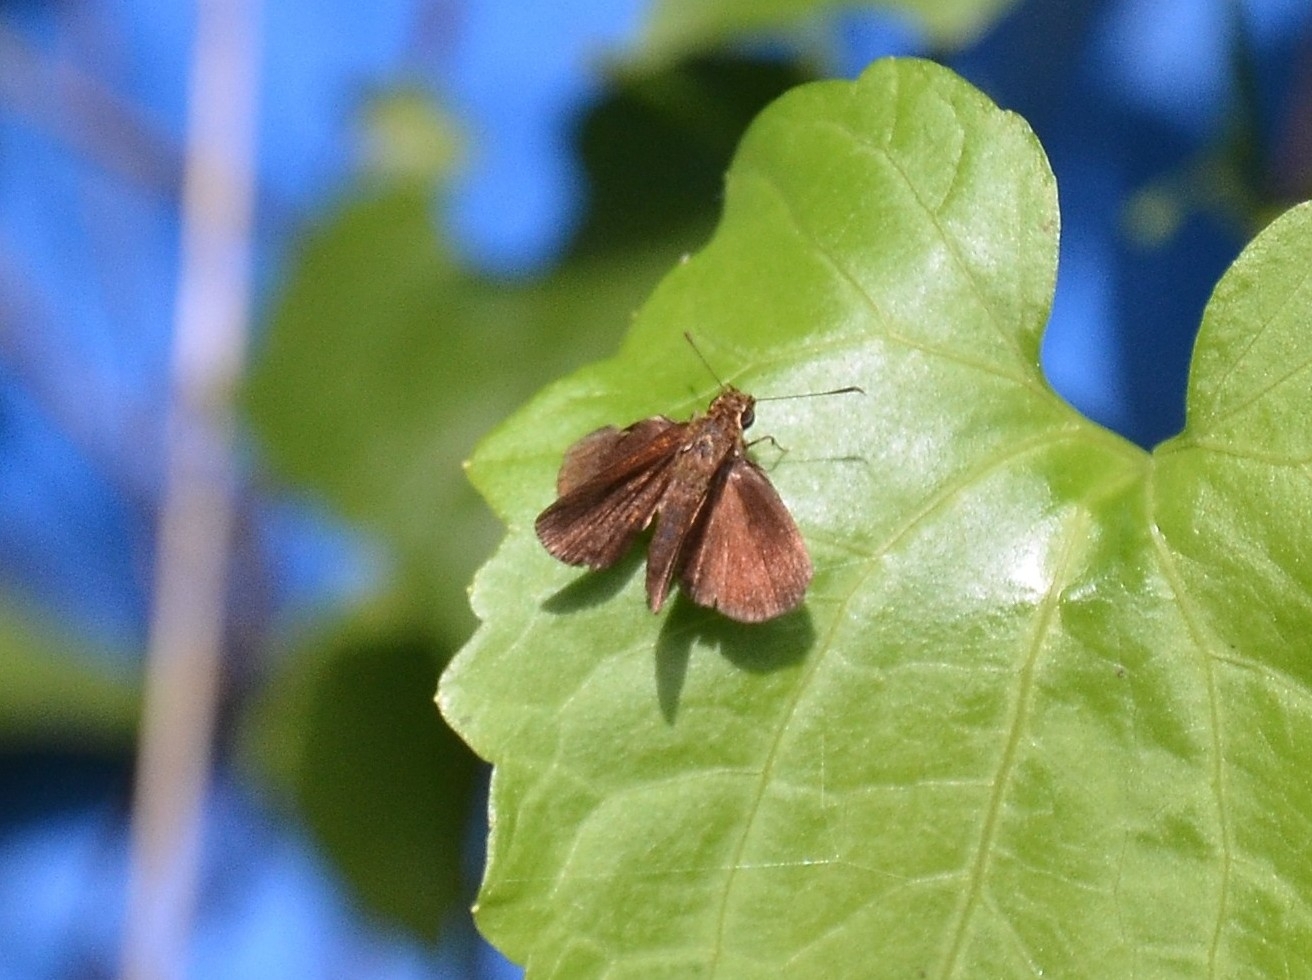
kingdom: Animalia
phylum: Arthropoda
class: Insecta
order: Lepidoptera
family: Hesperiidae
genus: Iambrix
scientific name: Iambrix salsala
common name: Chestnut bob
